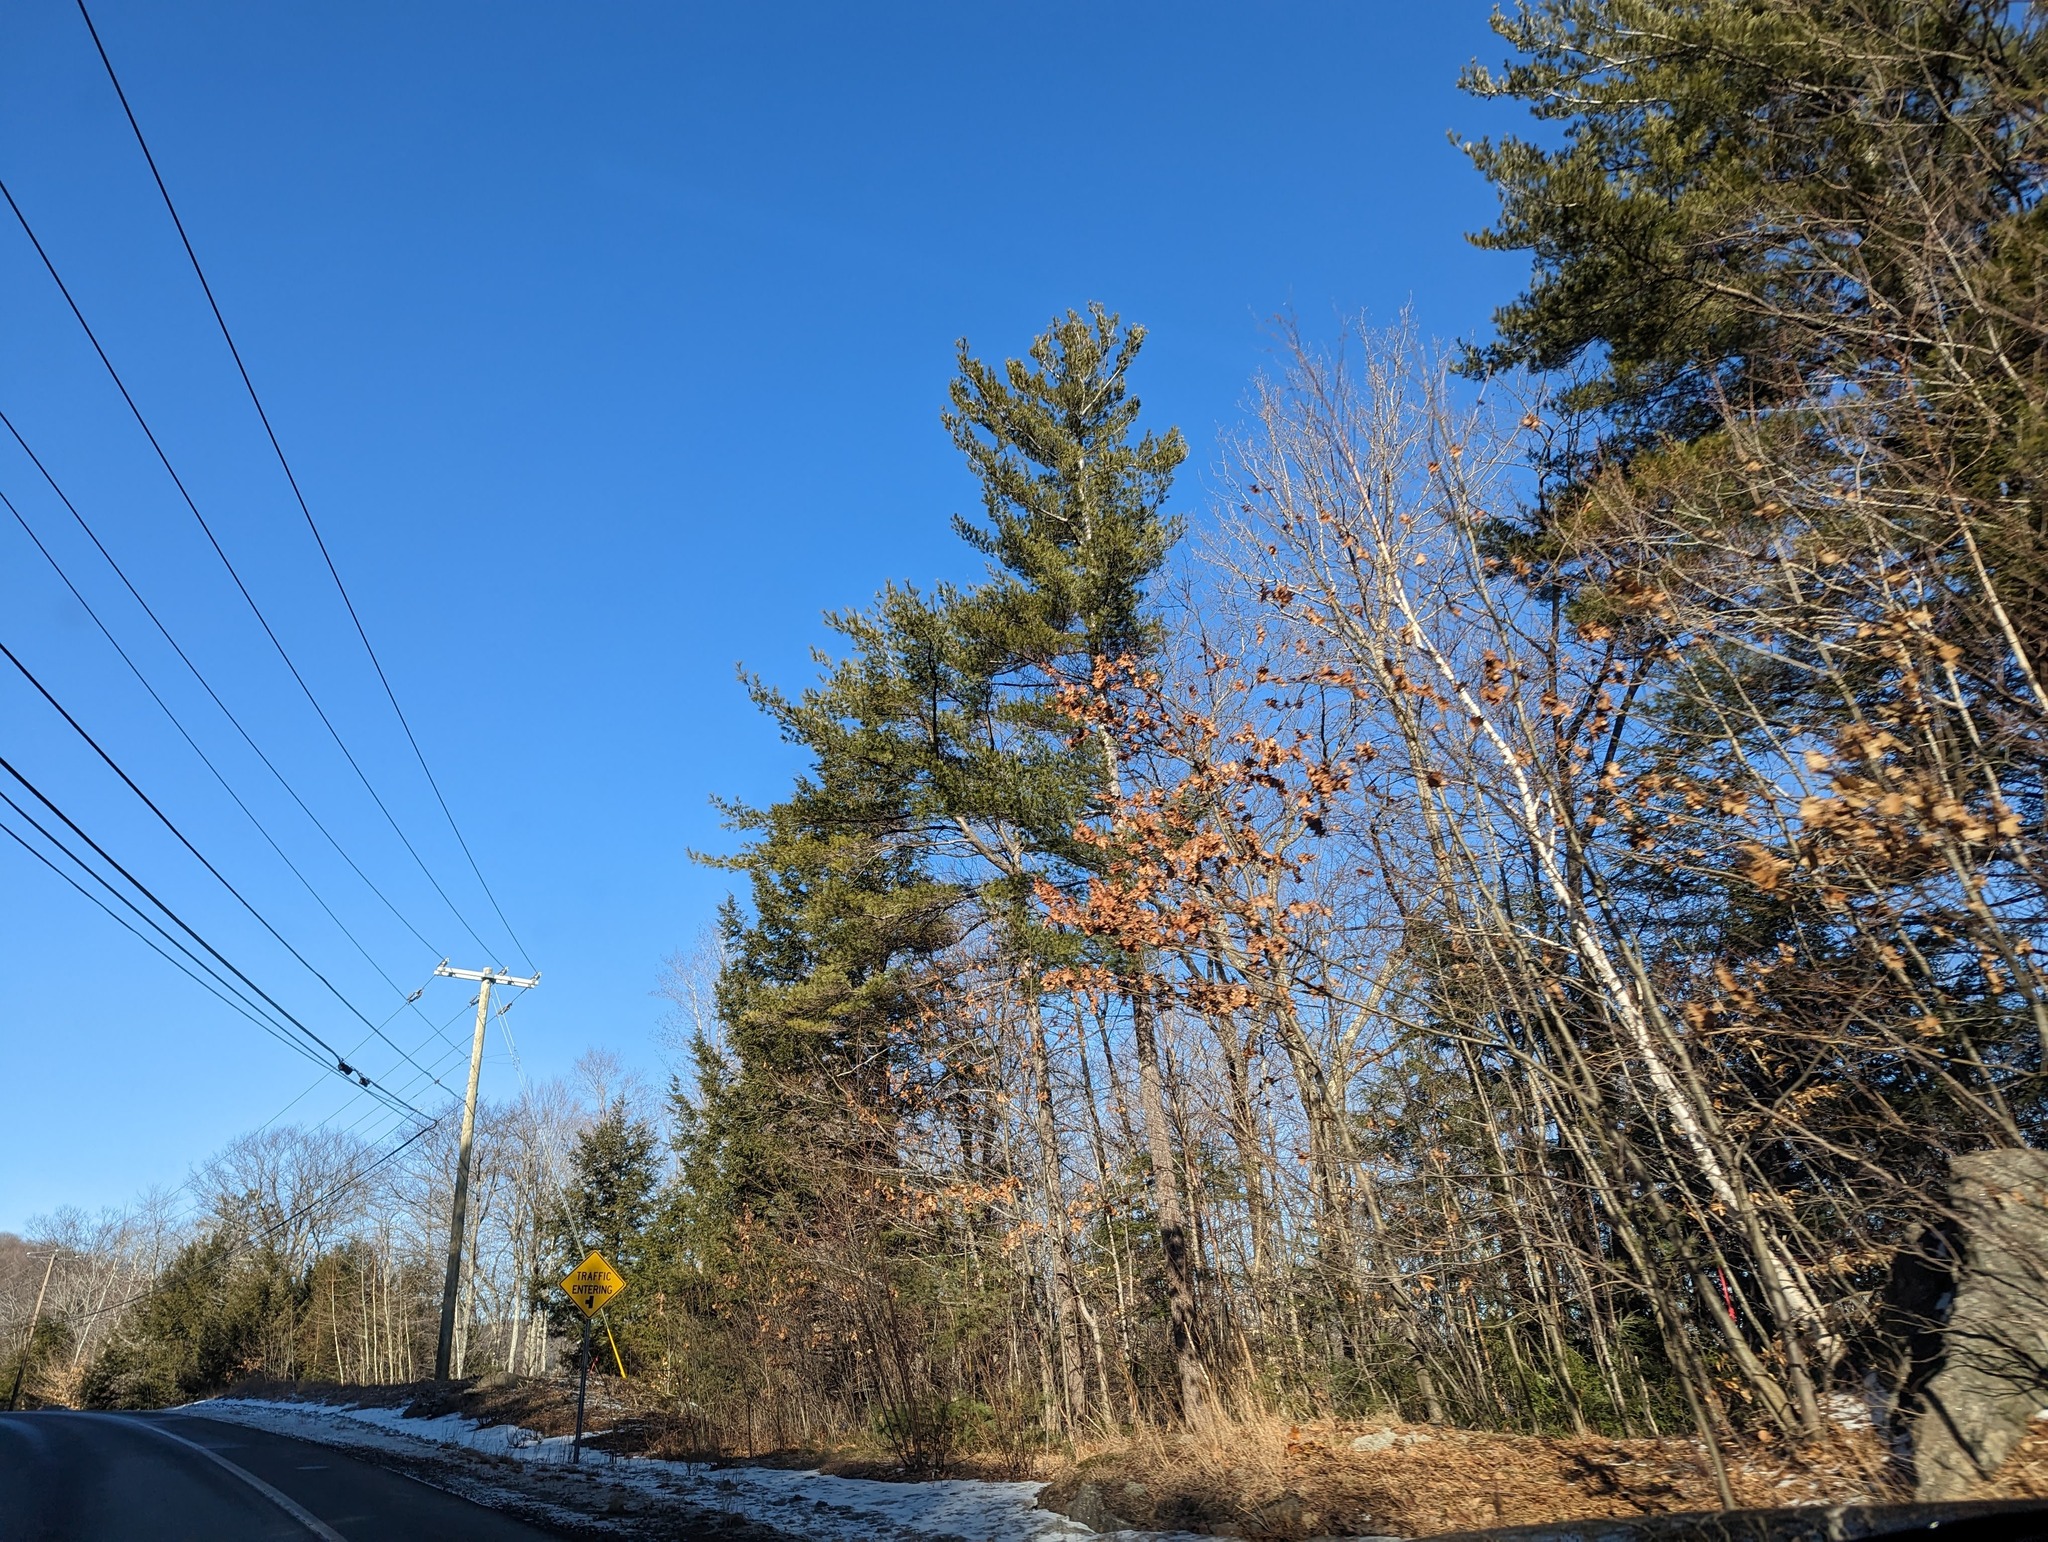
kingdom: Plantae
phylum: Tracheophyta
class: Pinopsida
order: Pinales
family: Pinaceae
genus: Pinus
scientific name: Pinus strobus
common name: Weymouth pine
